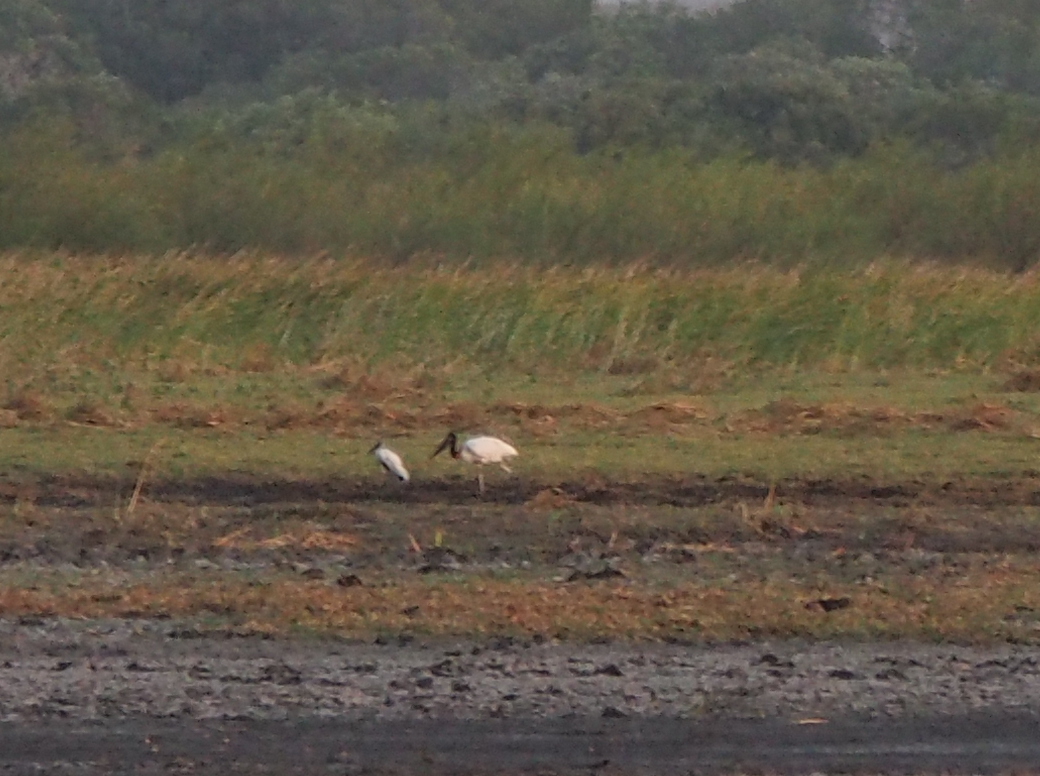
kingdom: Animalia
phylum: Chordata
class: Aves
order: Ciconiiformes
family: Ciconiidae
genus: Mycteria
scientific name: Mycteria americana
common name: Wood stork
